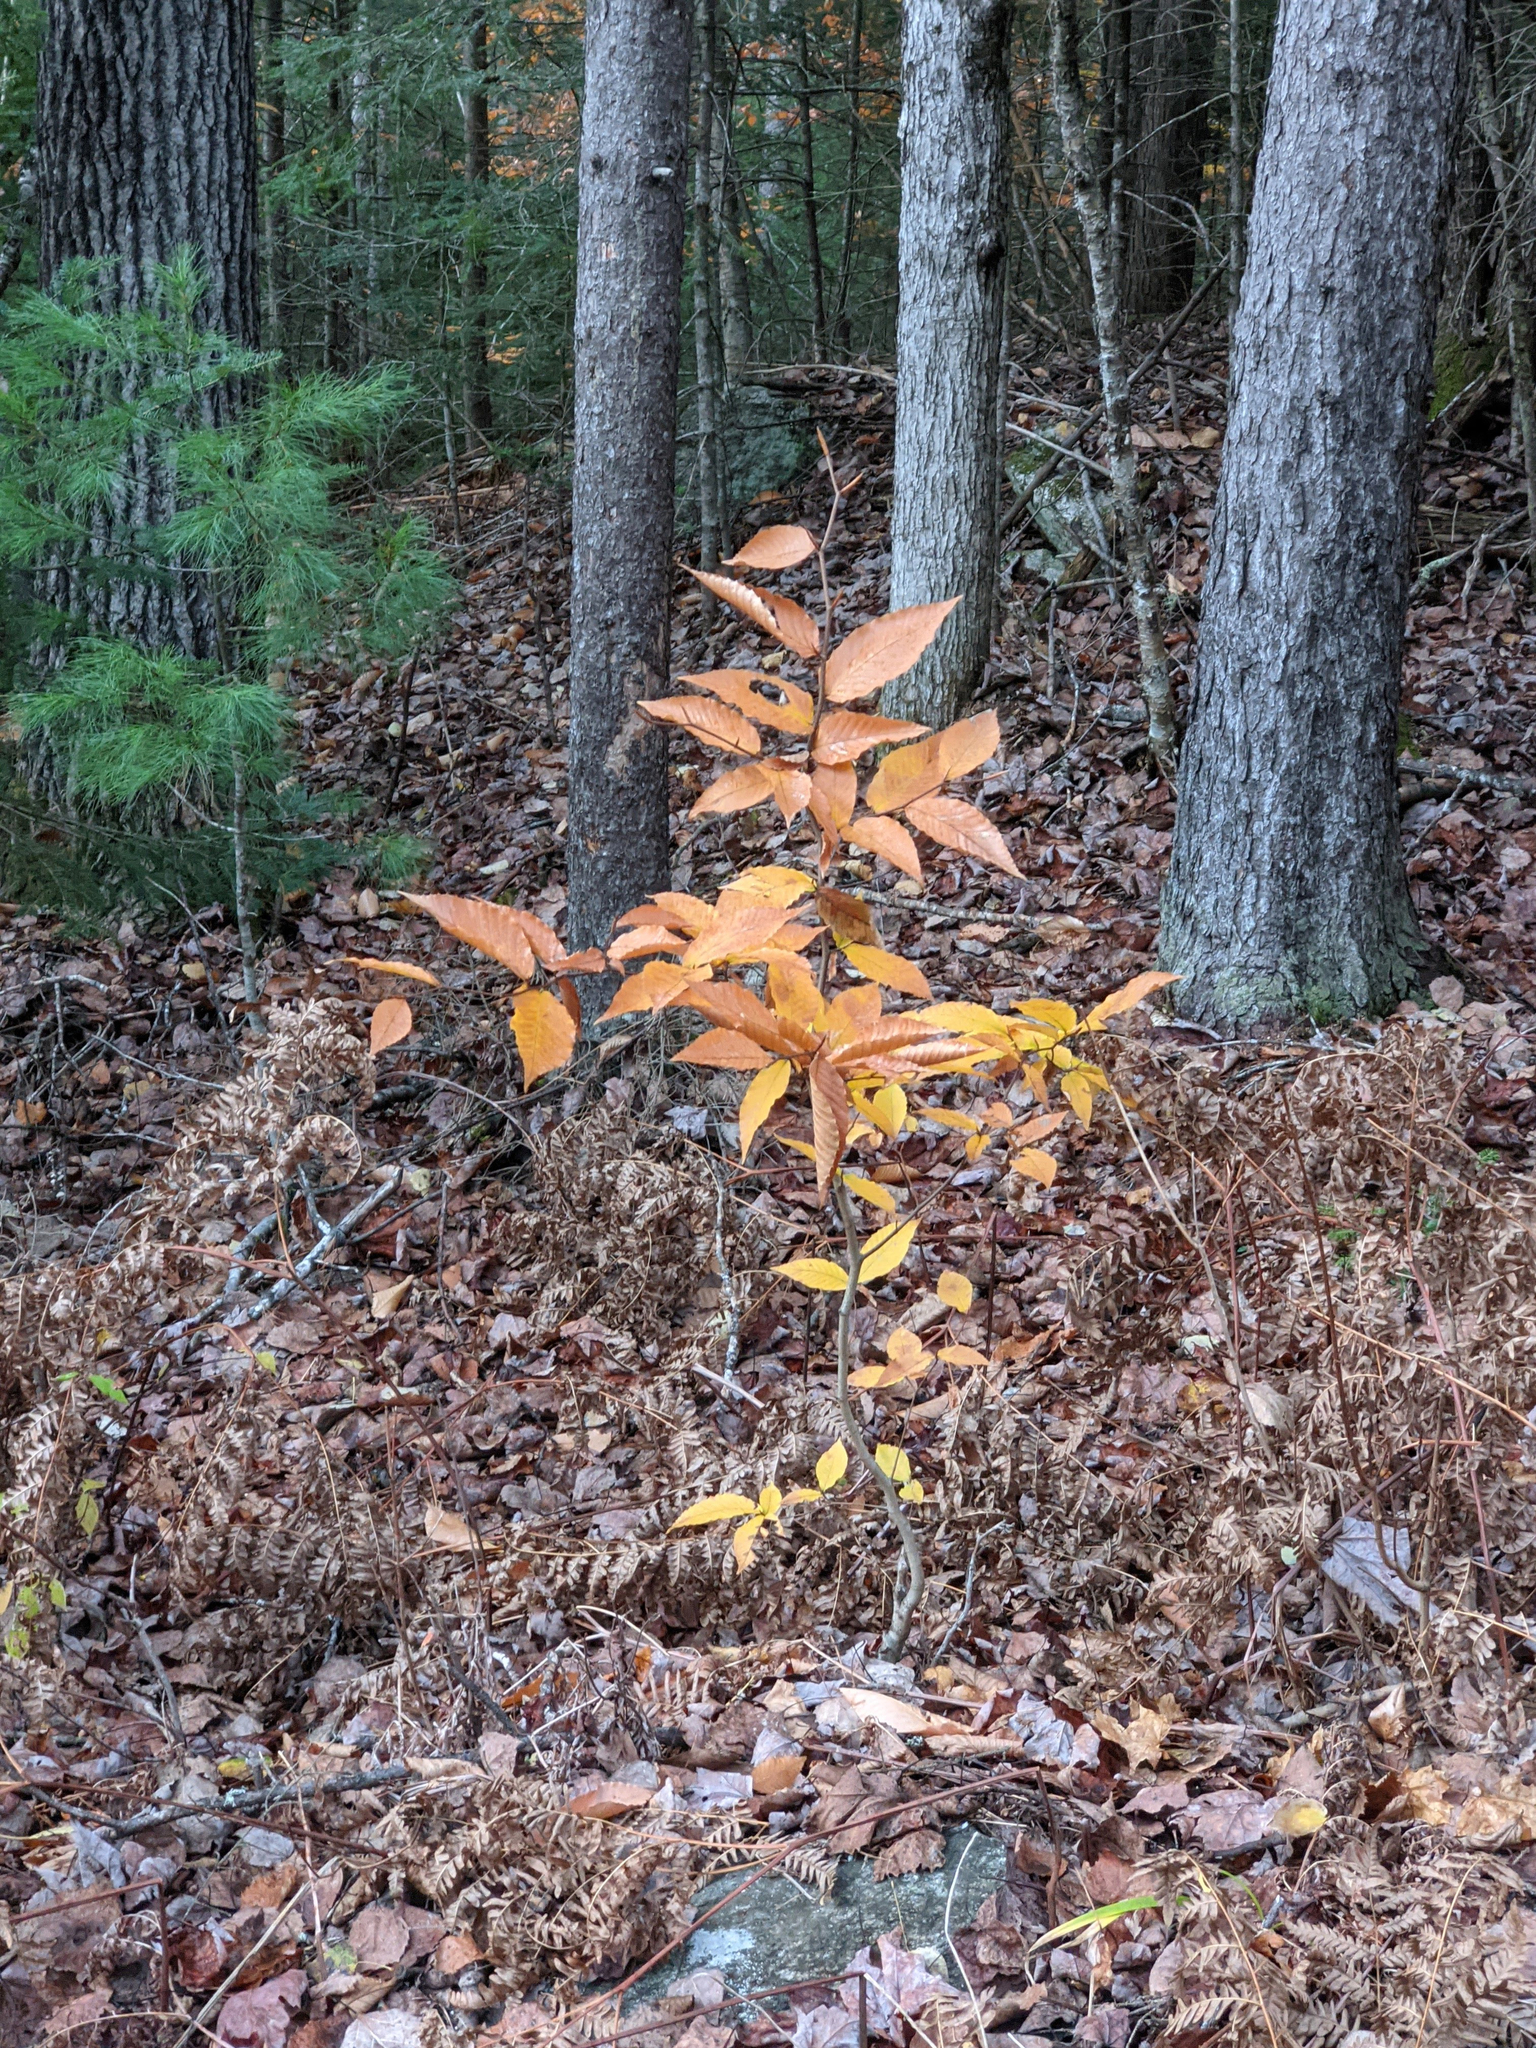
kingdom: Plantae
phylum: Tracheophyta
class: Magnoliopsida
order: Fagales
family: Fagaceae
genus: Fagus
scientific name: Fagus grandifolia
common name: American beech
